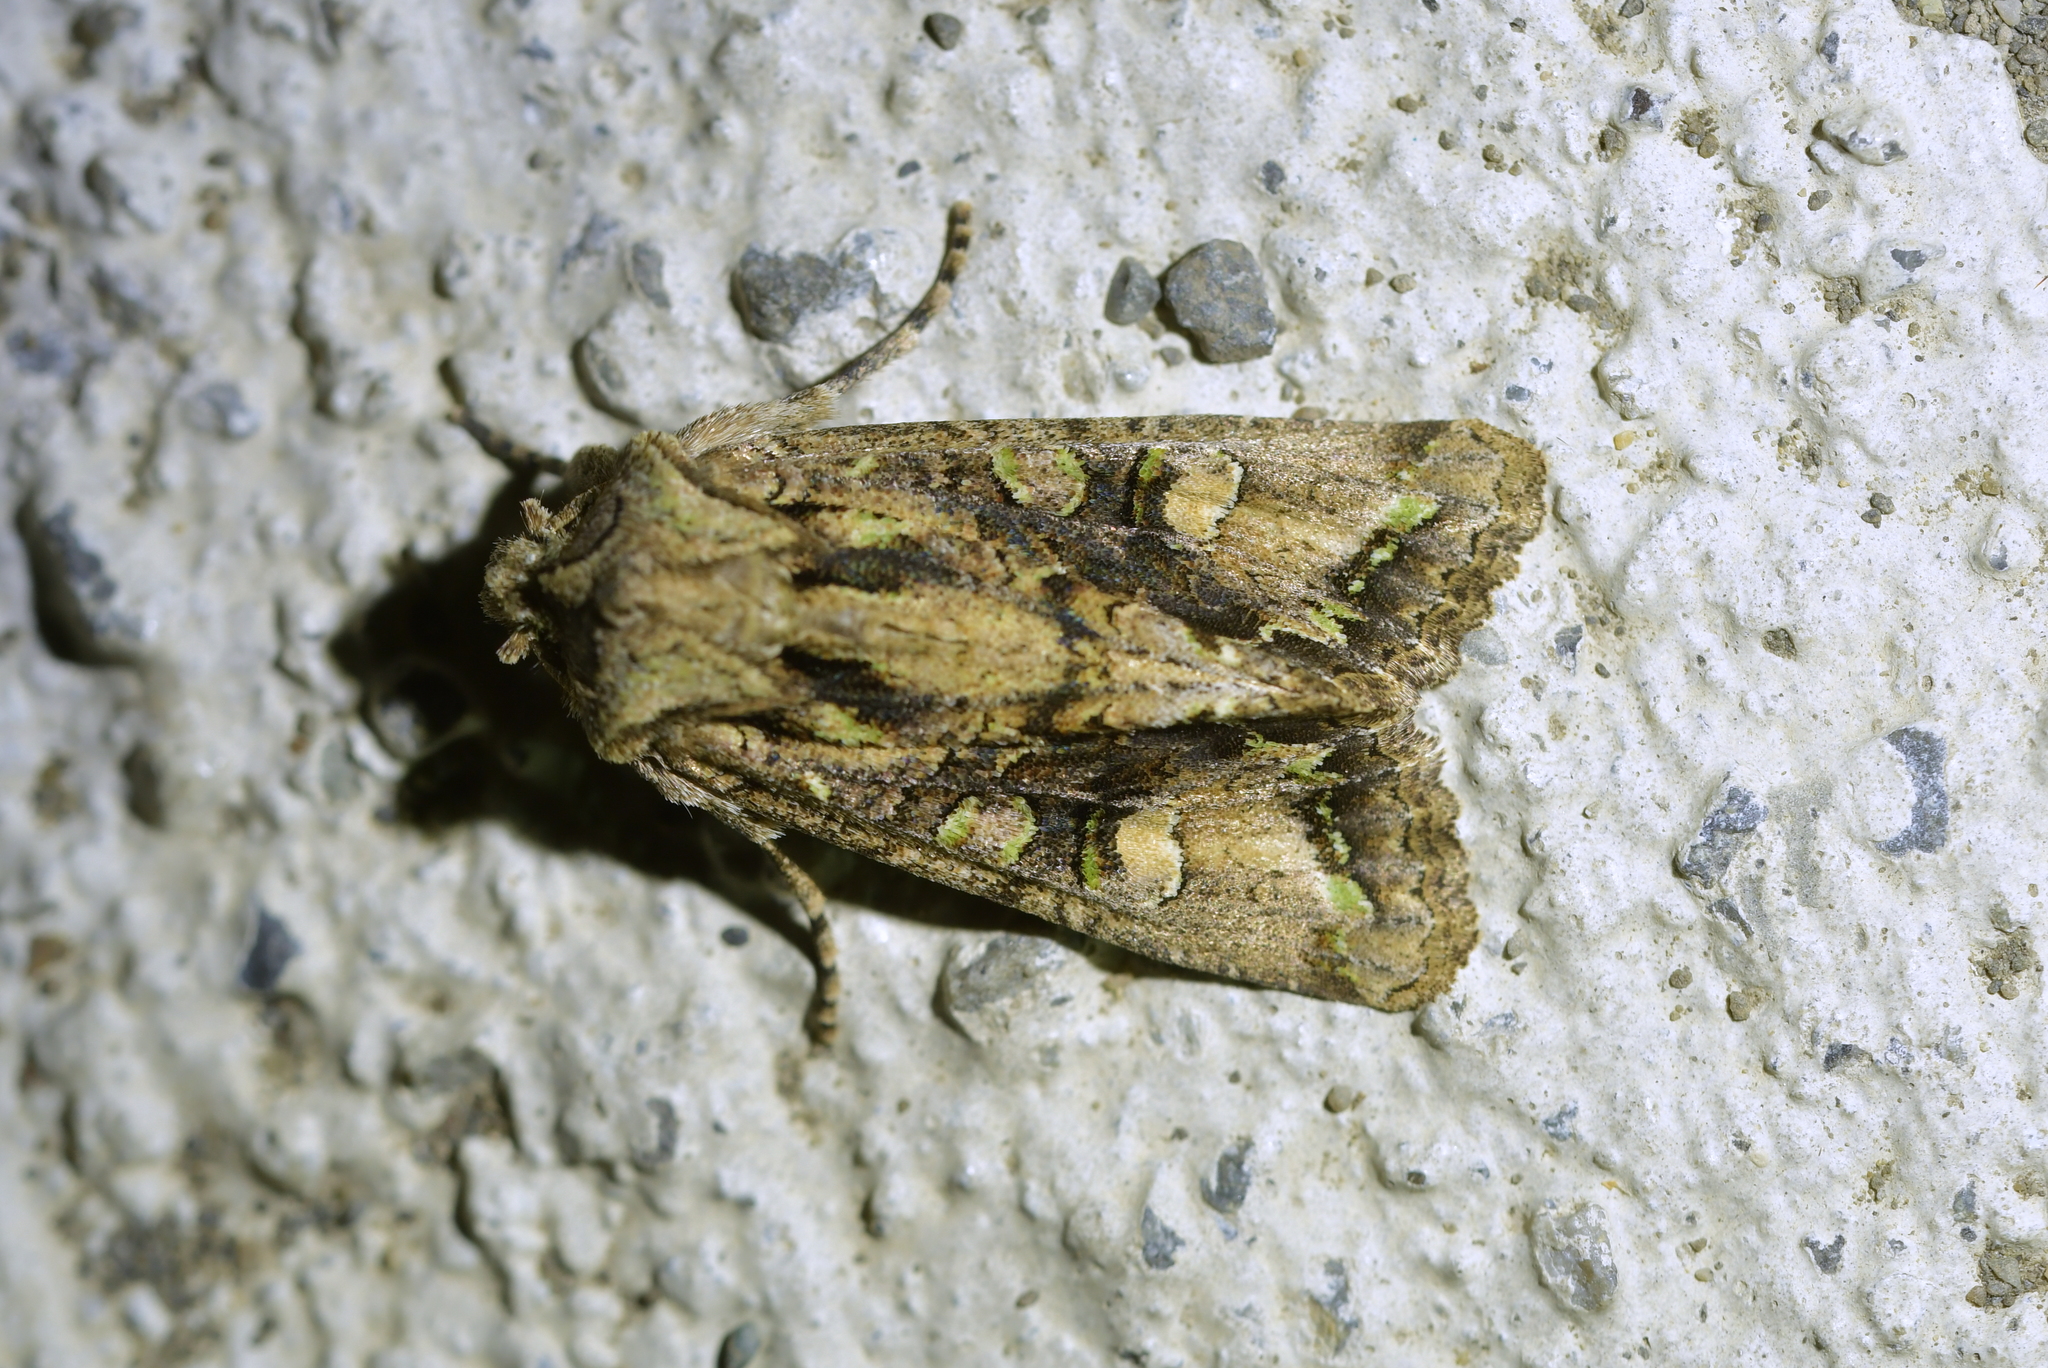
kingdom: Animalia
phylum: Arthropoda
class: Insecta
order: Lepidoptera
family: Noctuidae
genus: Ichneutica
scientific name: Ichneutica insignis
